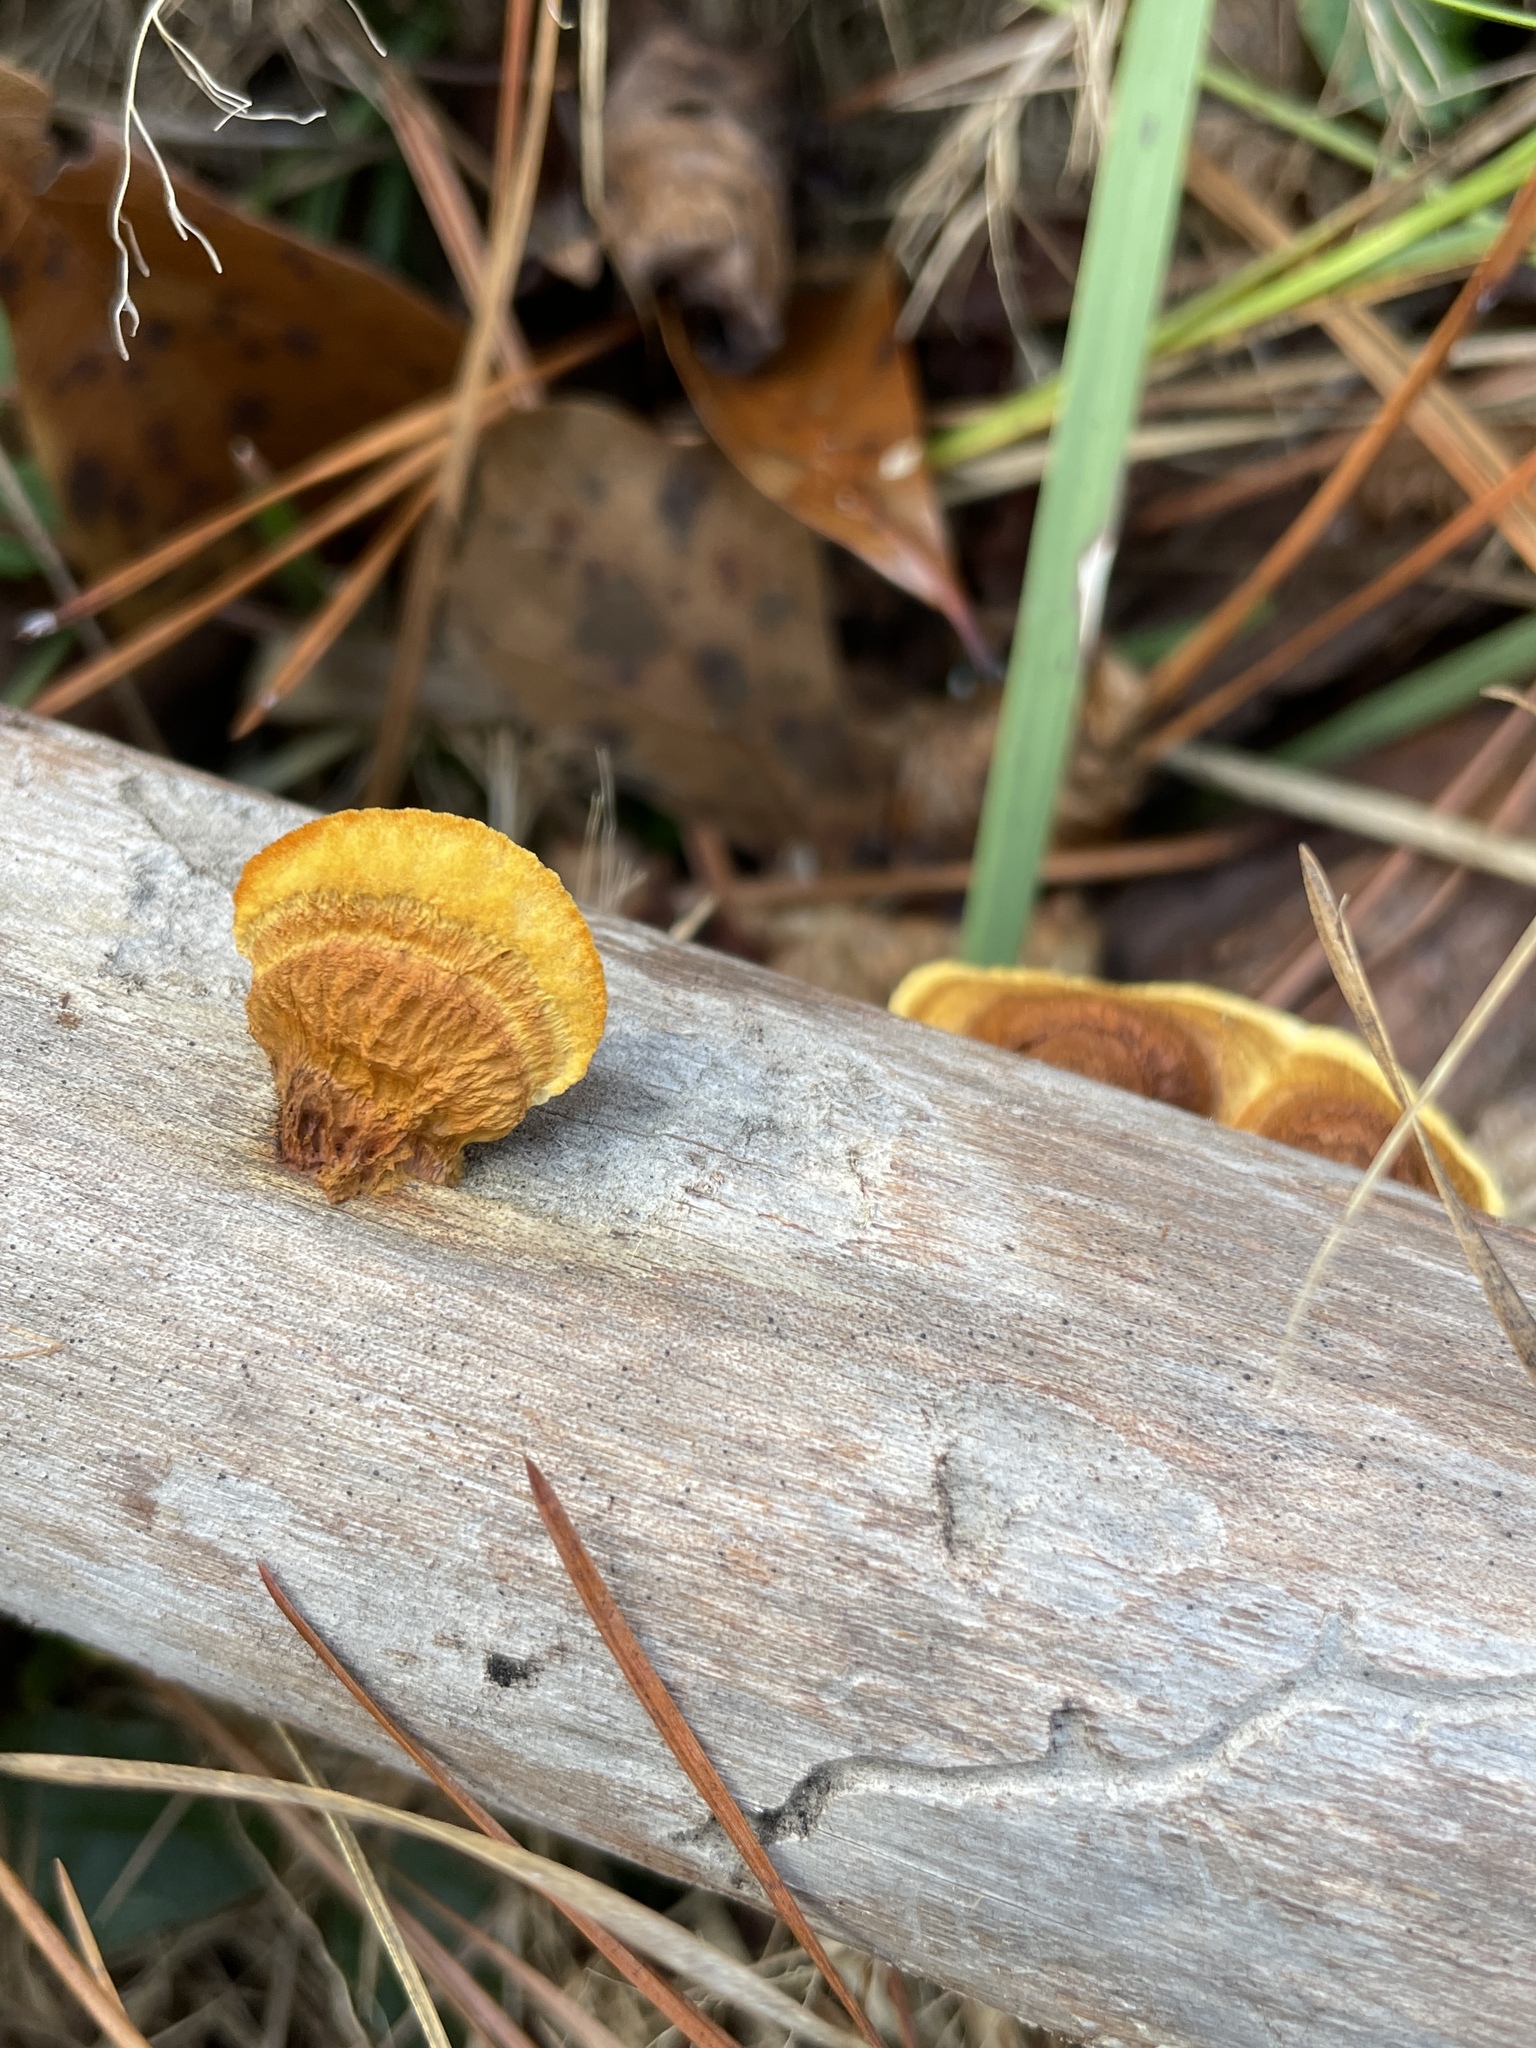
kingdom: Fungi
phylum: Basidiomycota
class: Agaricomycetes
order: Gloeophyllales
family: Gloeophyllaceae
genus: Gloeophyllum
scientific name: Gloeophyllum sepiarium
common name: Conifer mazegill
